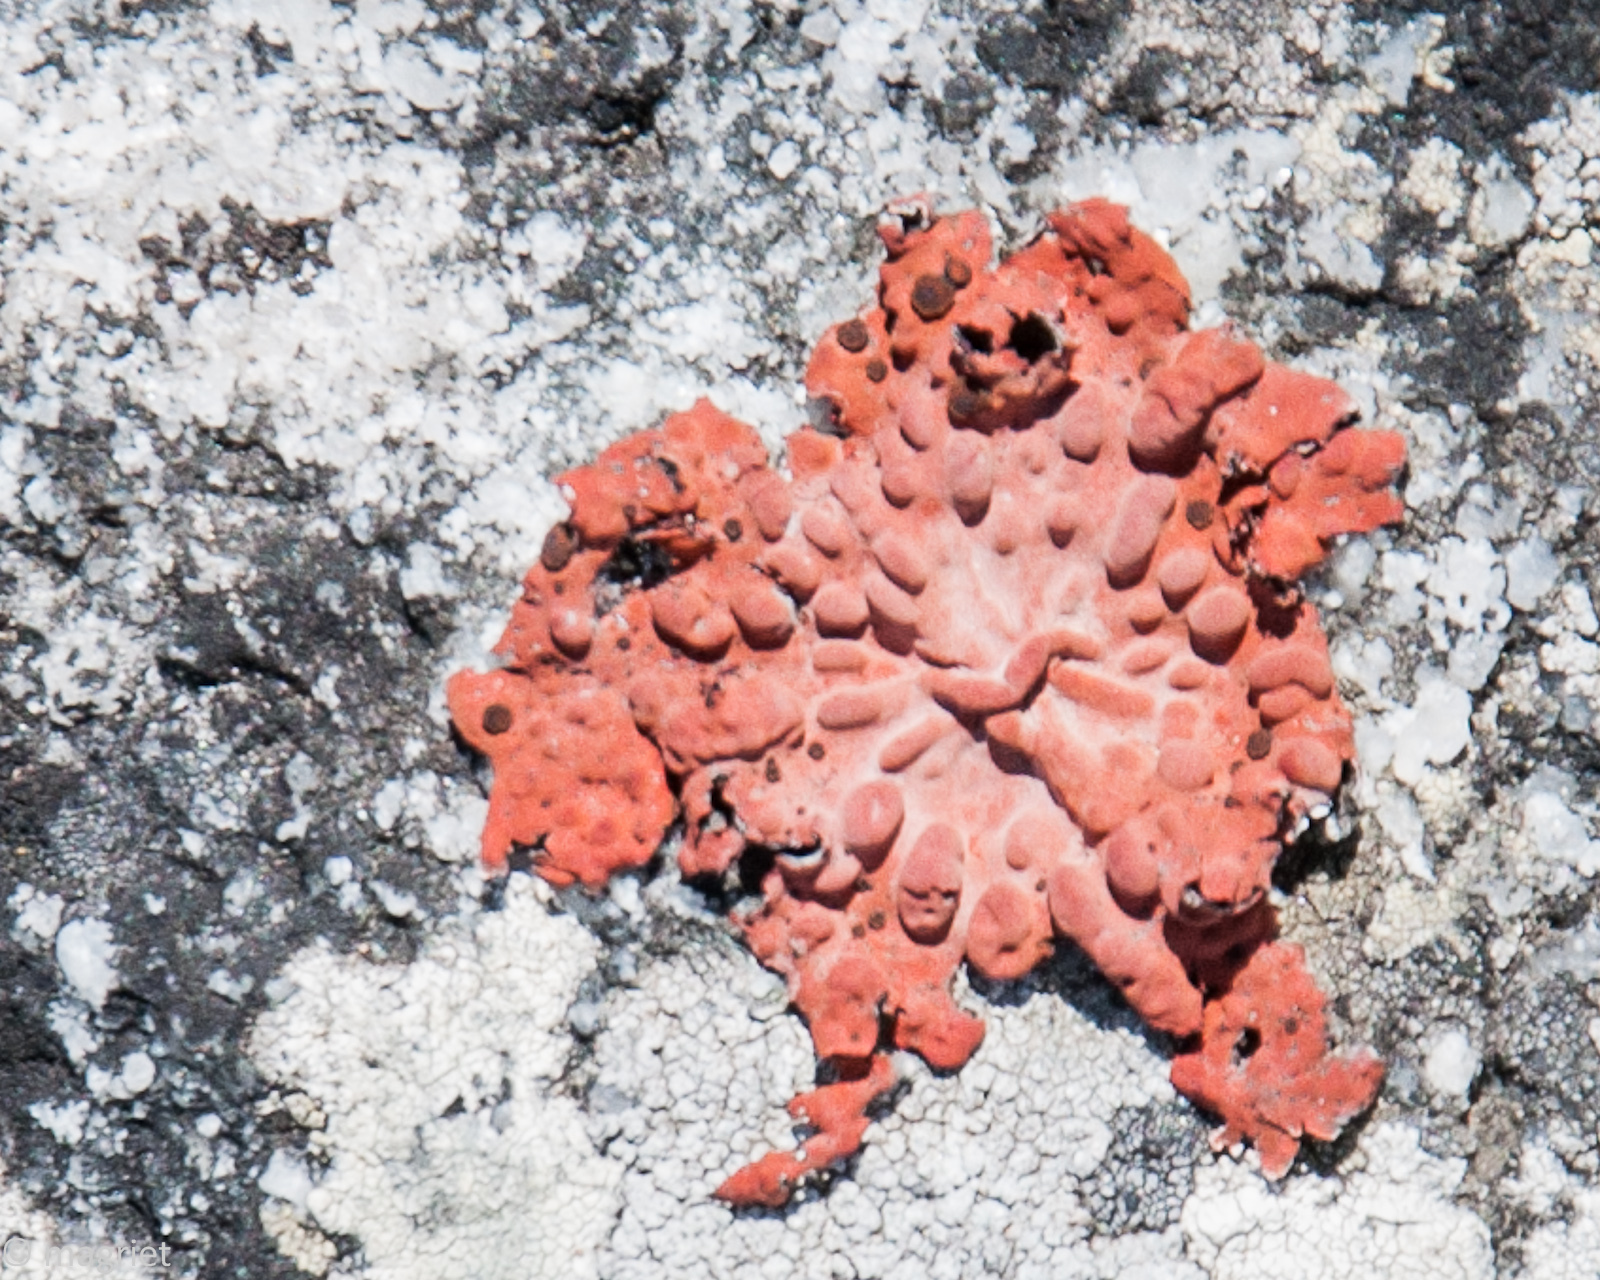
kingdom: Fungi
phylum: Ascomycota
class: Lecanoromycetes
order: Umbilicariales
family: Umbilicariaceae
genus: Lasallia
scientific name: Lasallia rubiginosa
